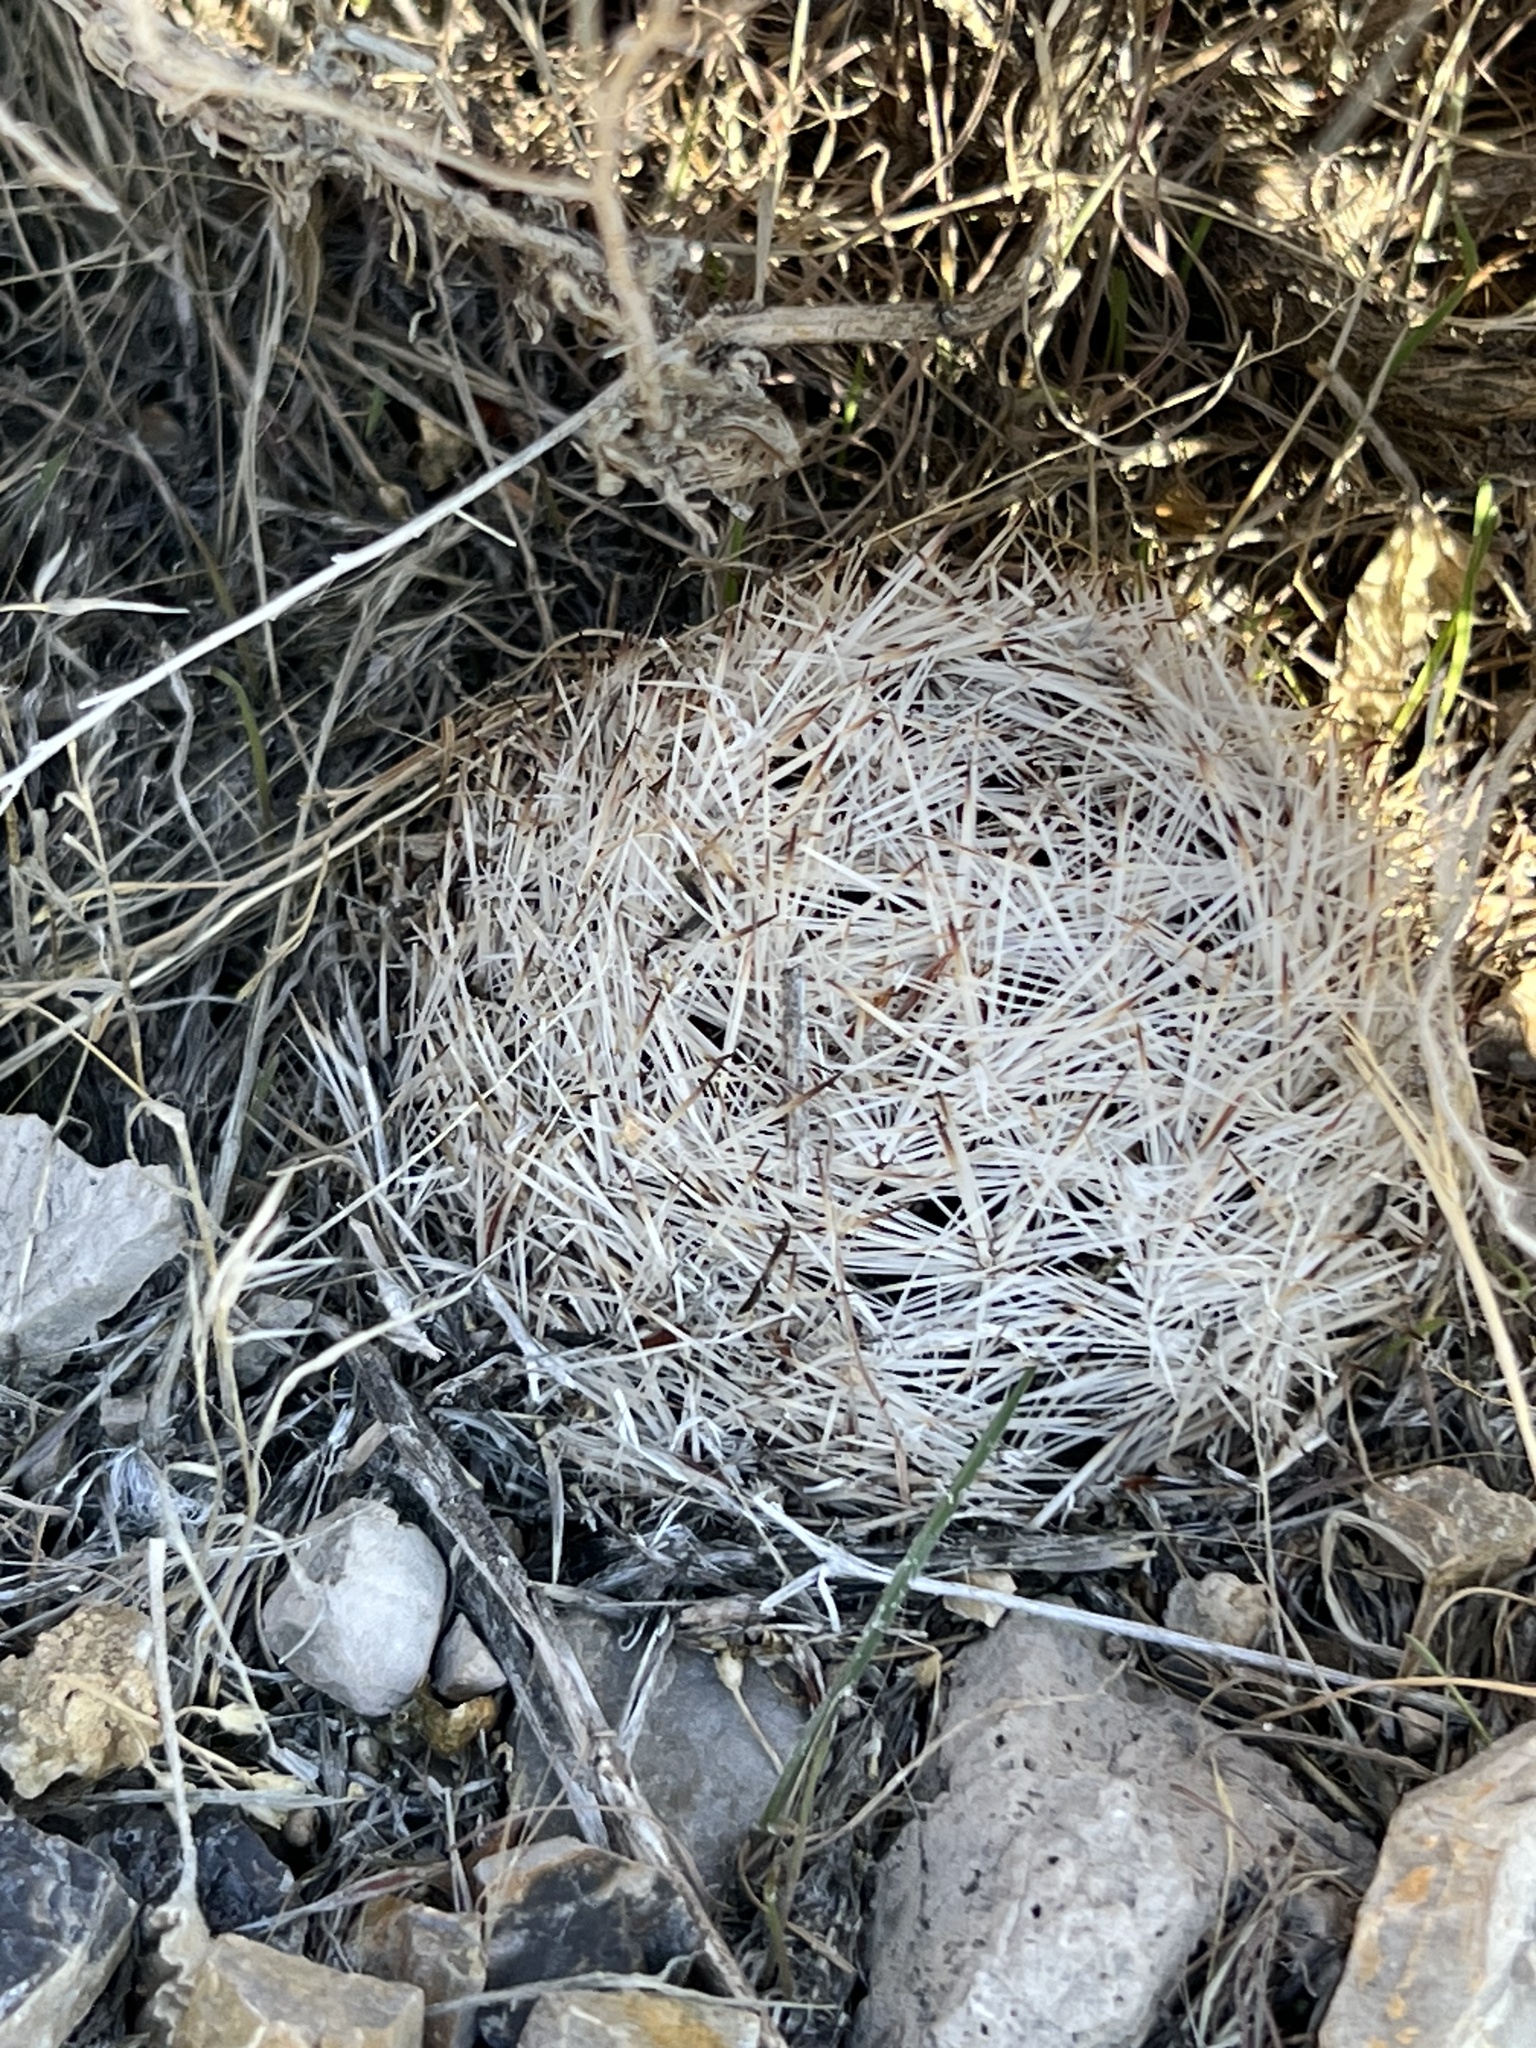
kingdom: Plantae
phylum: Tracheophyta
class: Magnoliopsida
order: Caryophyllales
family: Cactaceae
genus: Pelecyphora
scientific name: Pelecyphora dasyacantha
